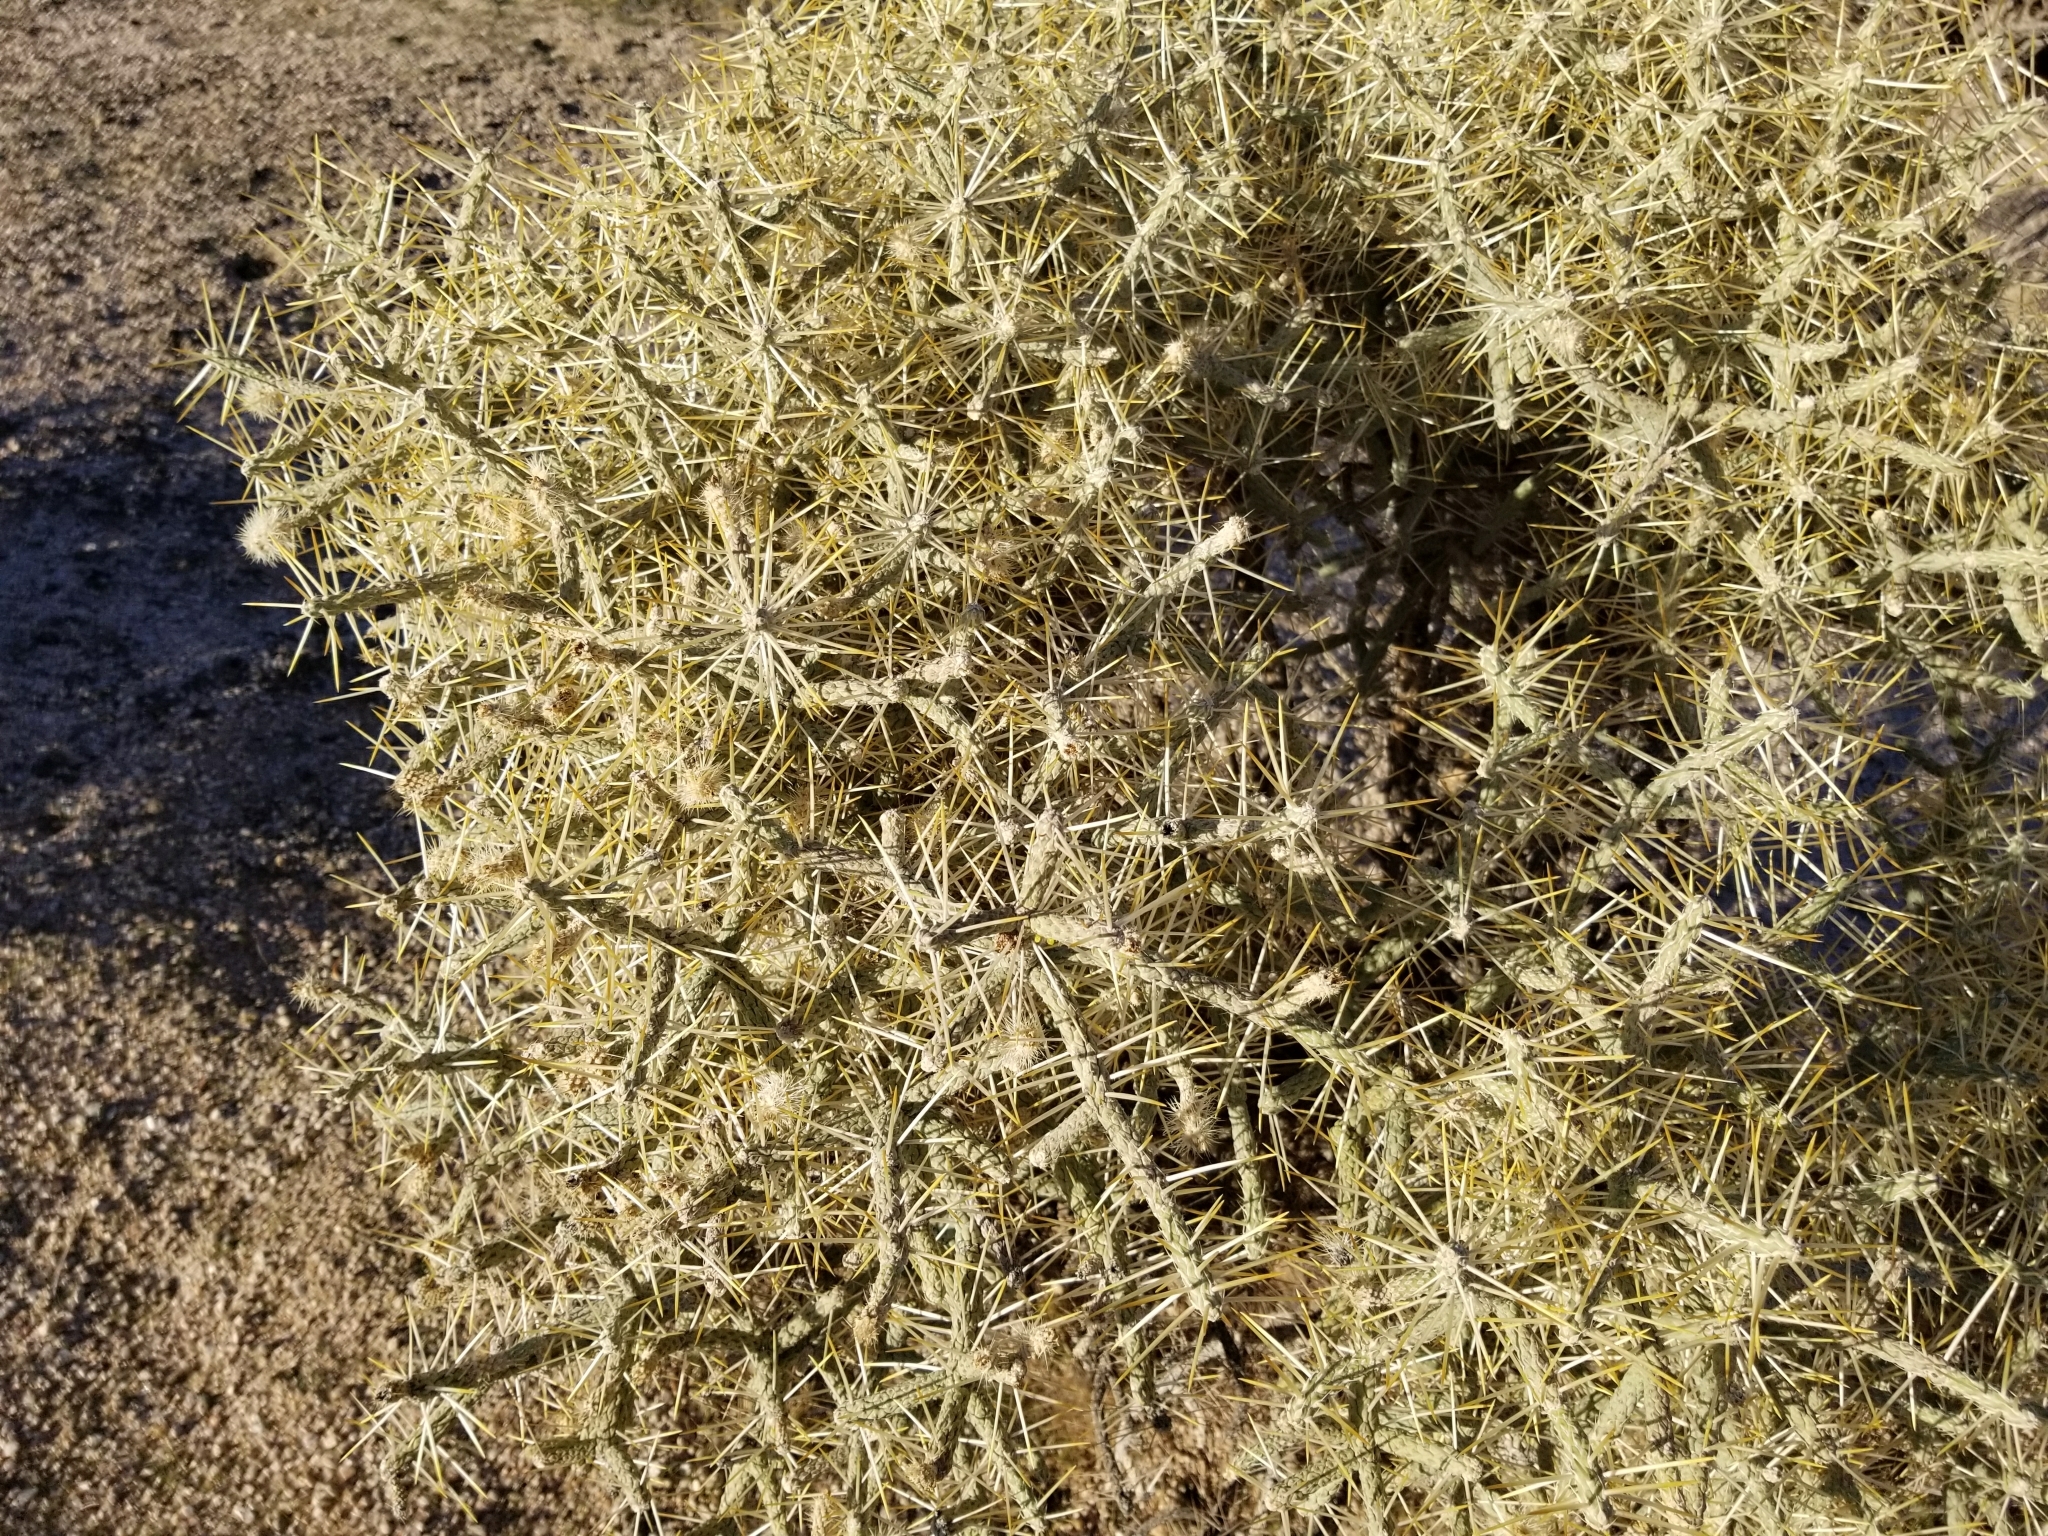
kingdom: Plantae
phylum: Tracheophyta
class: Magnoliopsida
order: Caryophyllales
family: Cactaceae
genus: Cylindropuntia
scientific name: Cylindropuntia ramosissima
